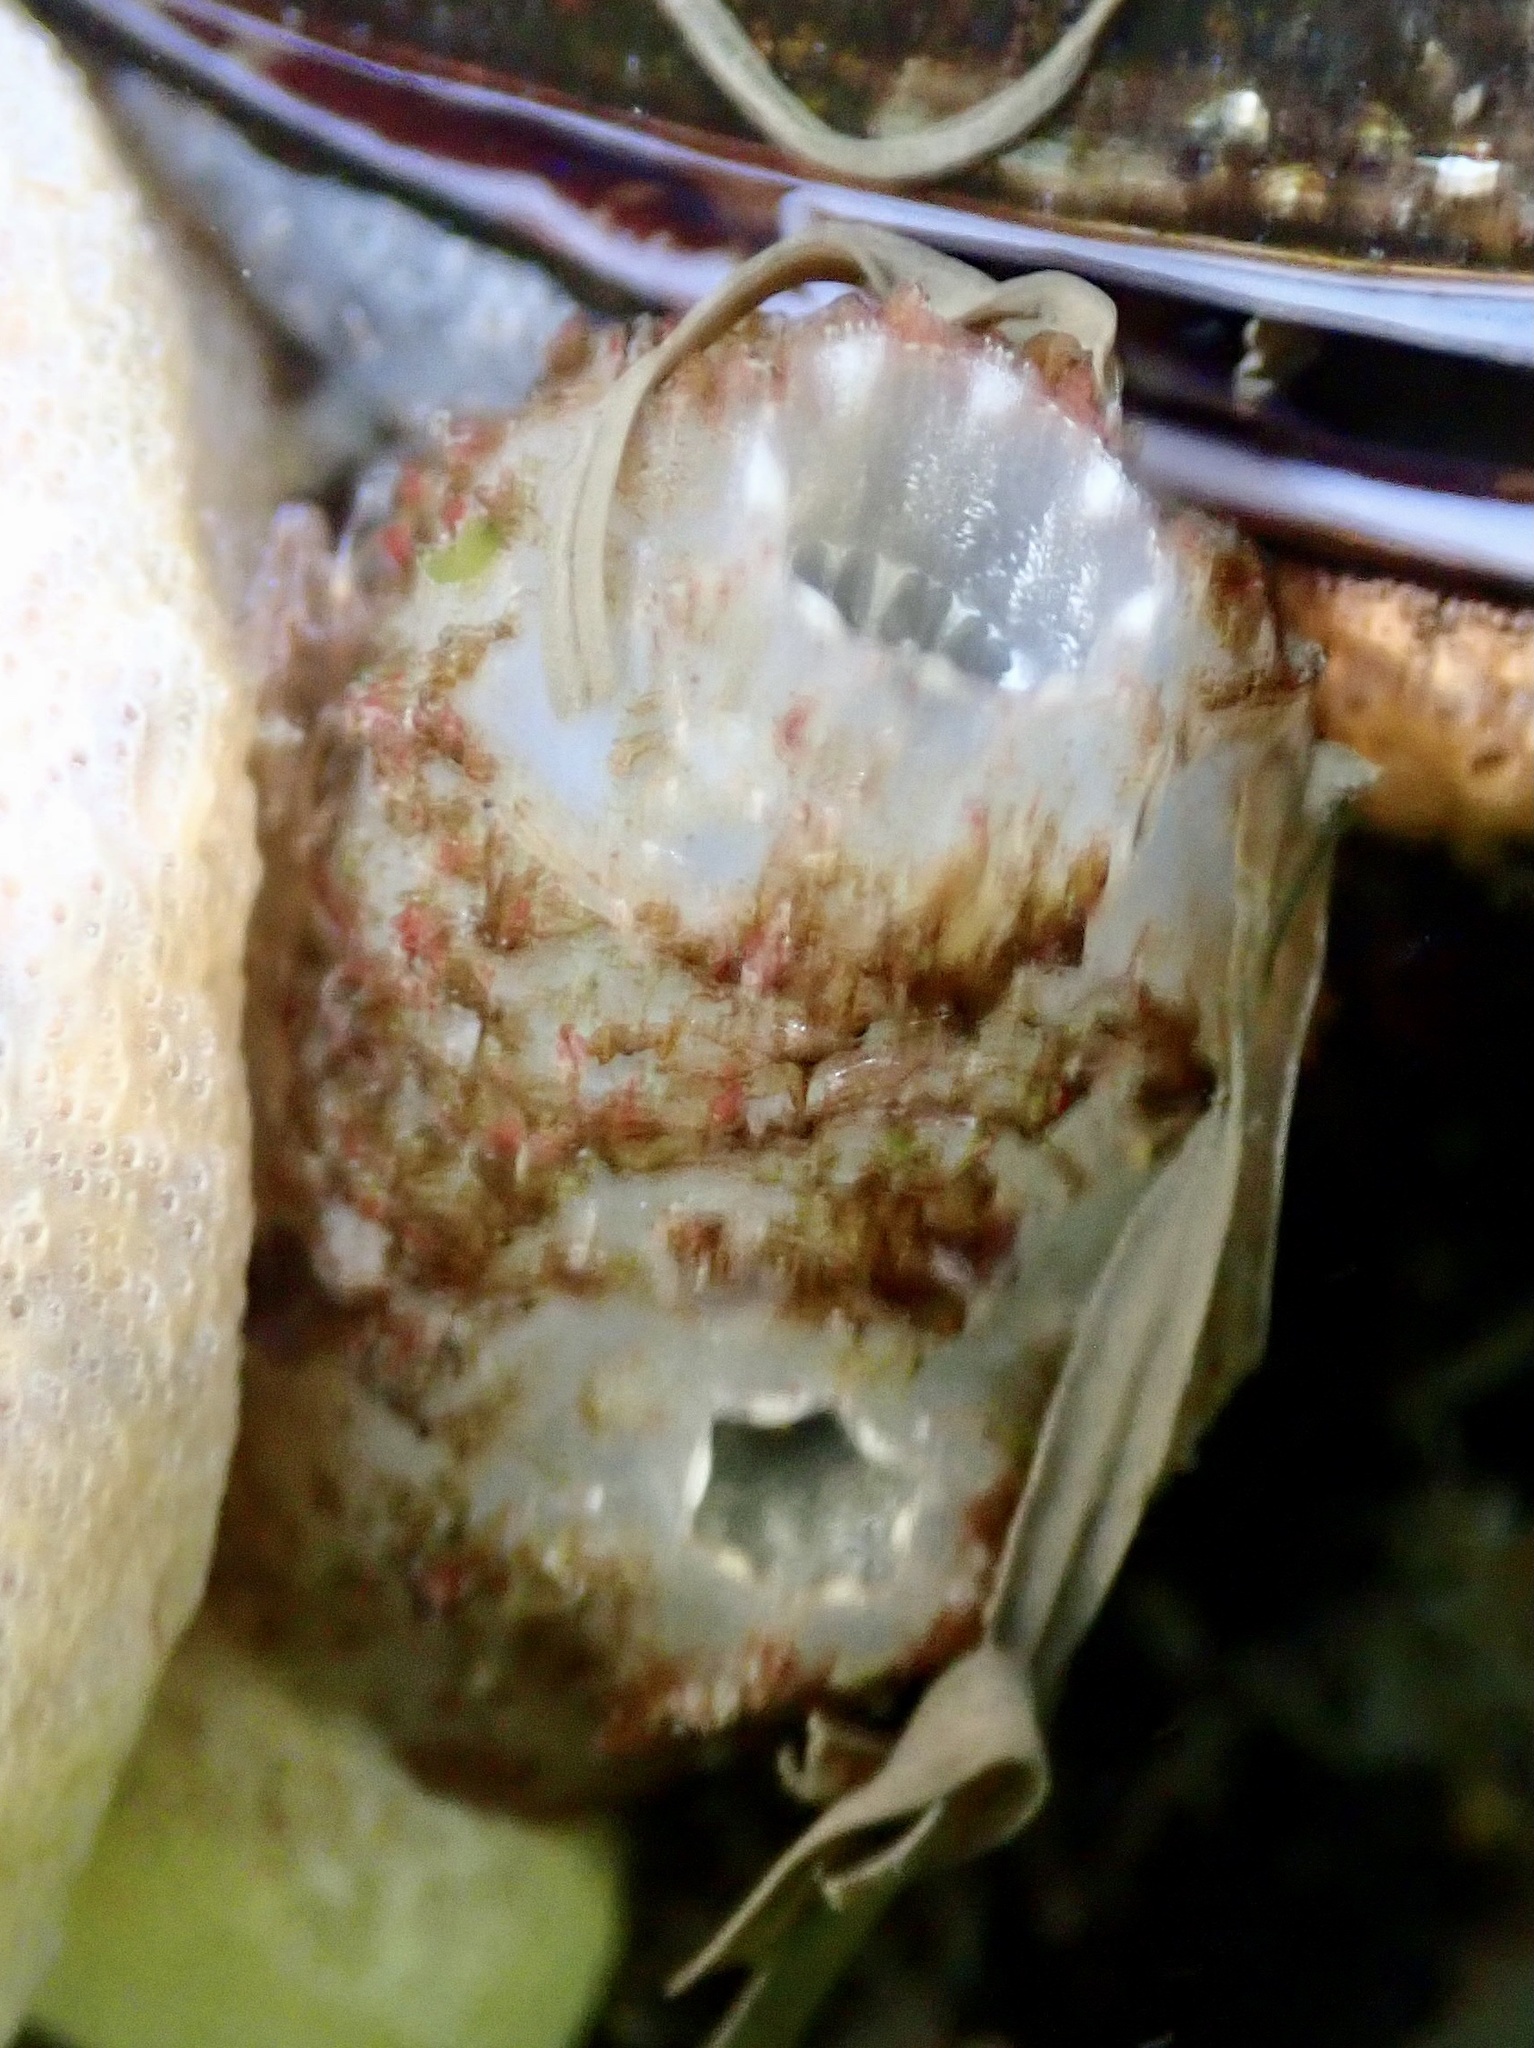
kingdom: Animalia
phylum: Chordata
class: Ascidiacea
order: Phlebobranchia
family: Ascidiidae
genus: Ascidiella
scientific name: Ascidiella aspersa
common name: Dirty sea-squirt
